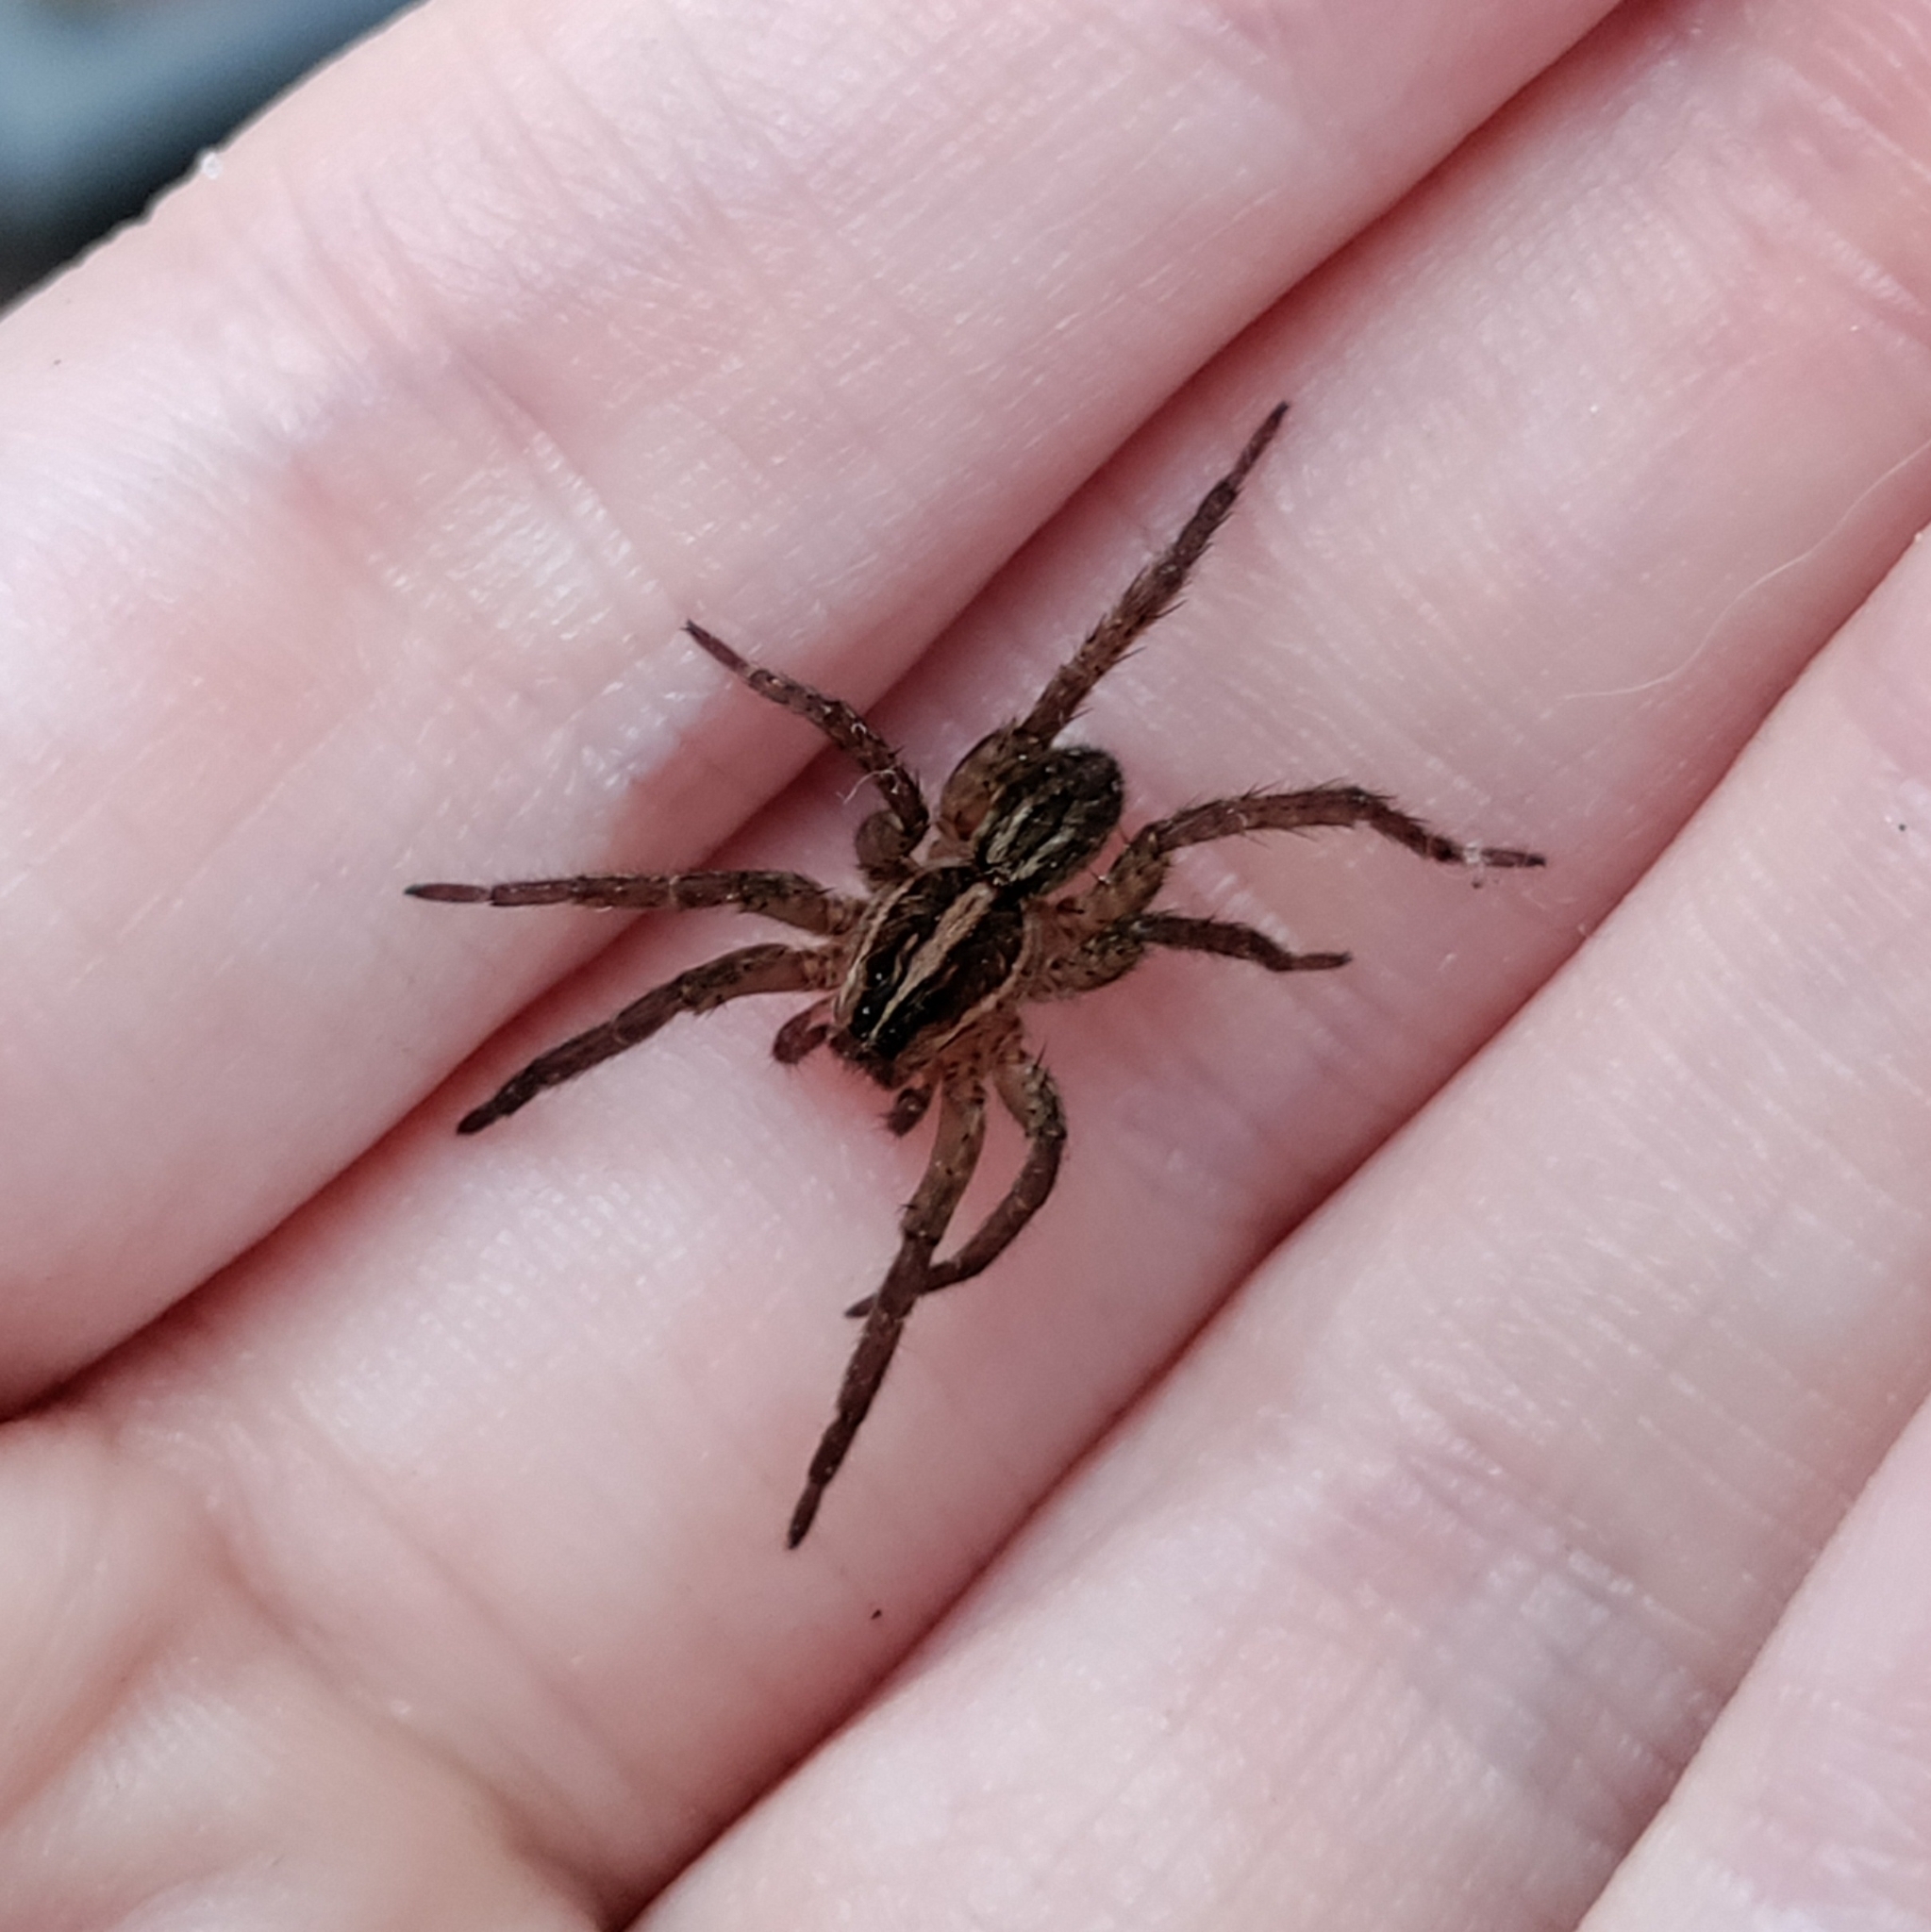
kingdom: Animalia
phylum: Arthropoda
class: Arachnida
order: Araneae
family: Lycosidae
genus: Tigrosa
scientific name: Tigrosa annexa
